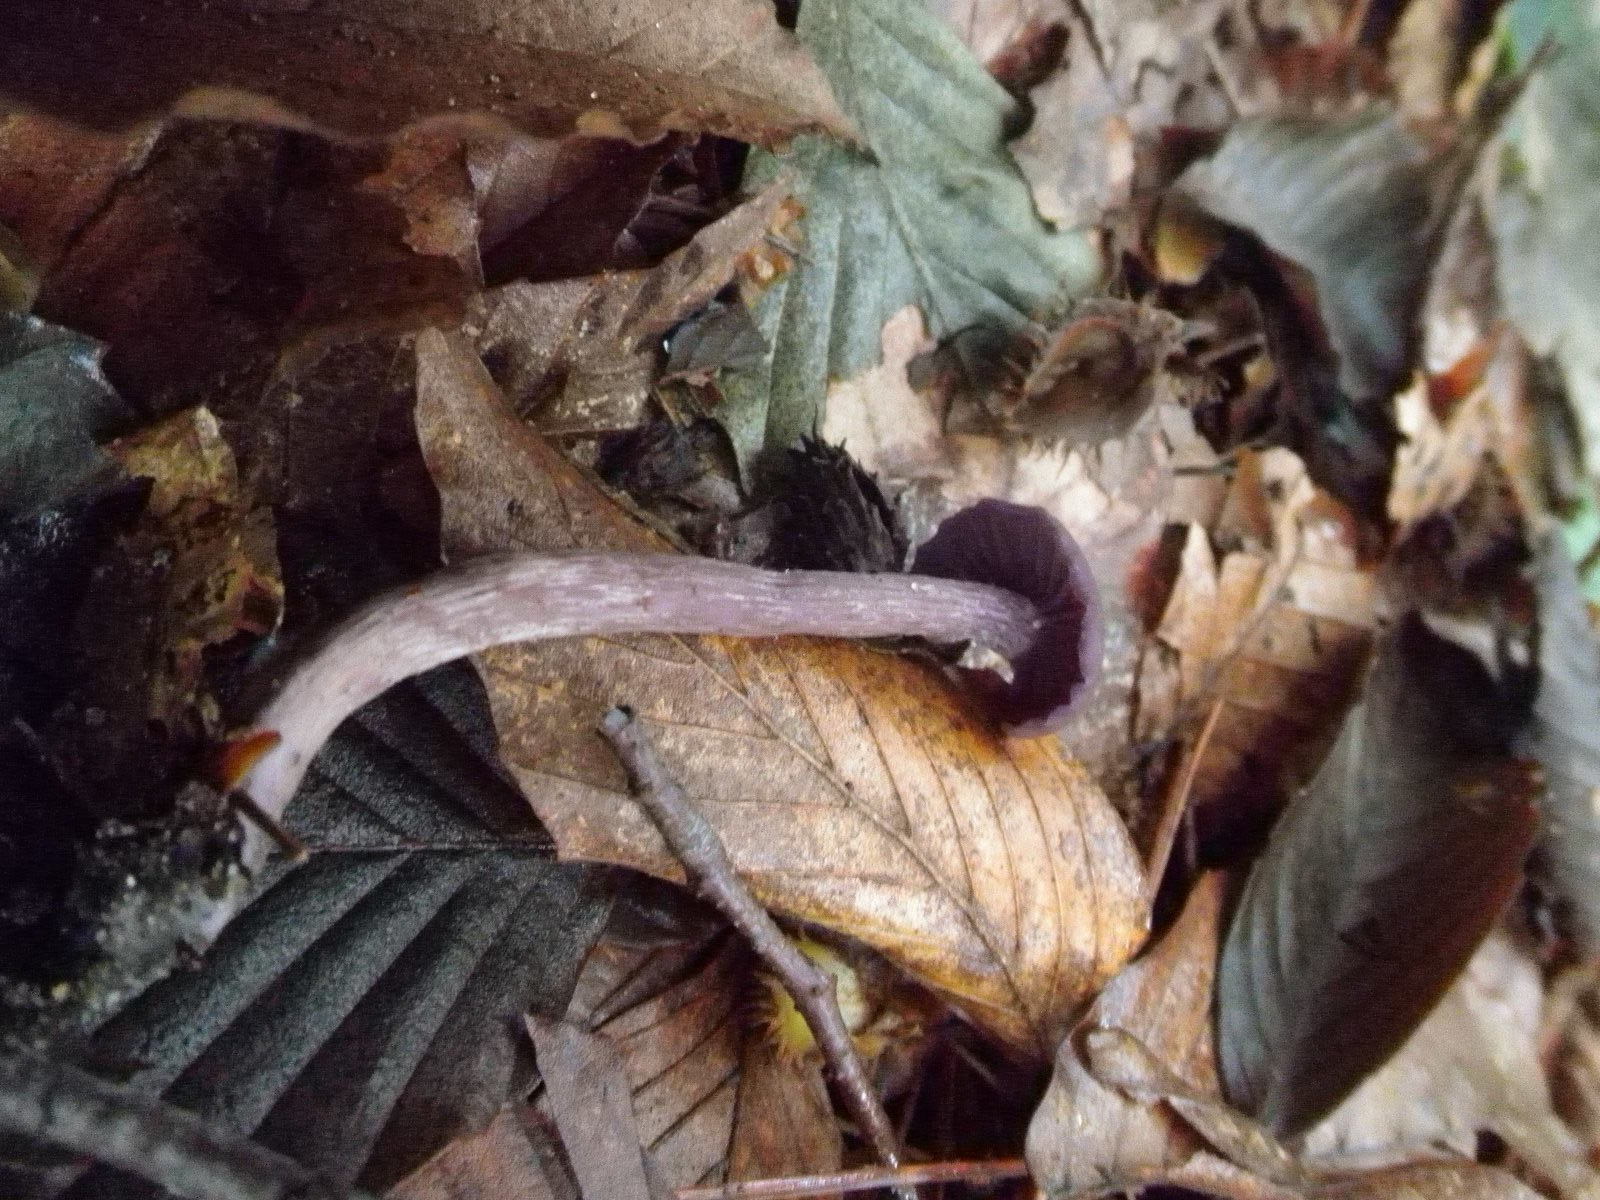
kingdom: Fungi
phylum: Basidiomycota
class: Agaricomycetes
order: Agaricales
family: Hydnangiaceae
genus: Laccaria
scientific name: Laccaria amethystina
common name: Amethyst deceiver
